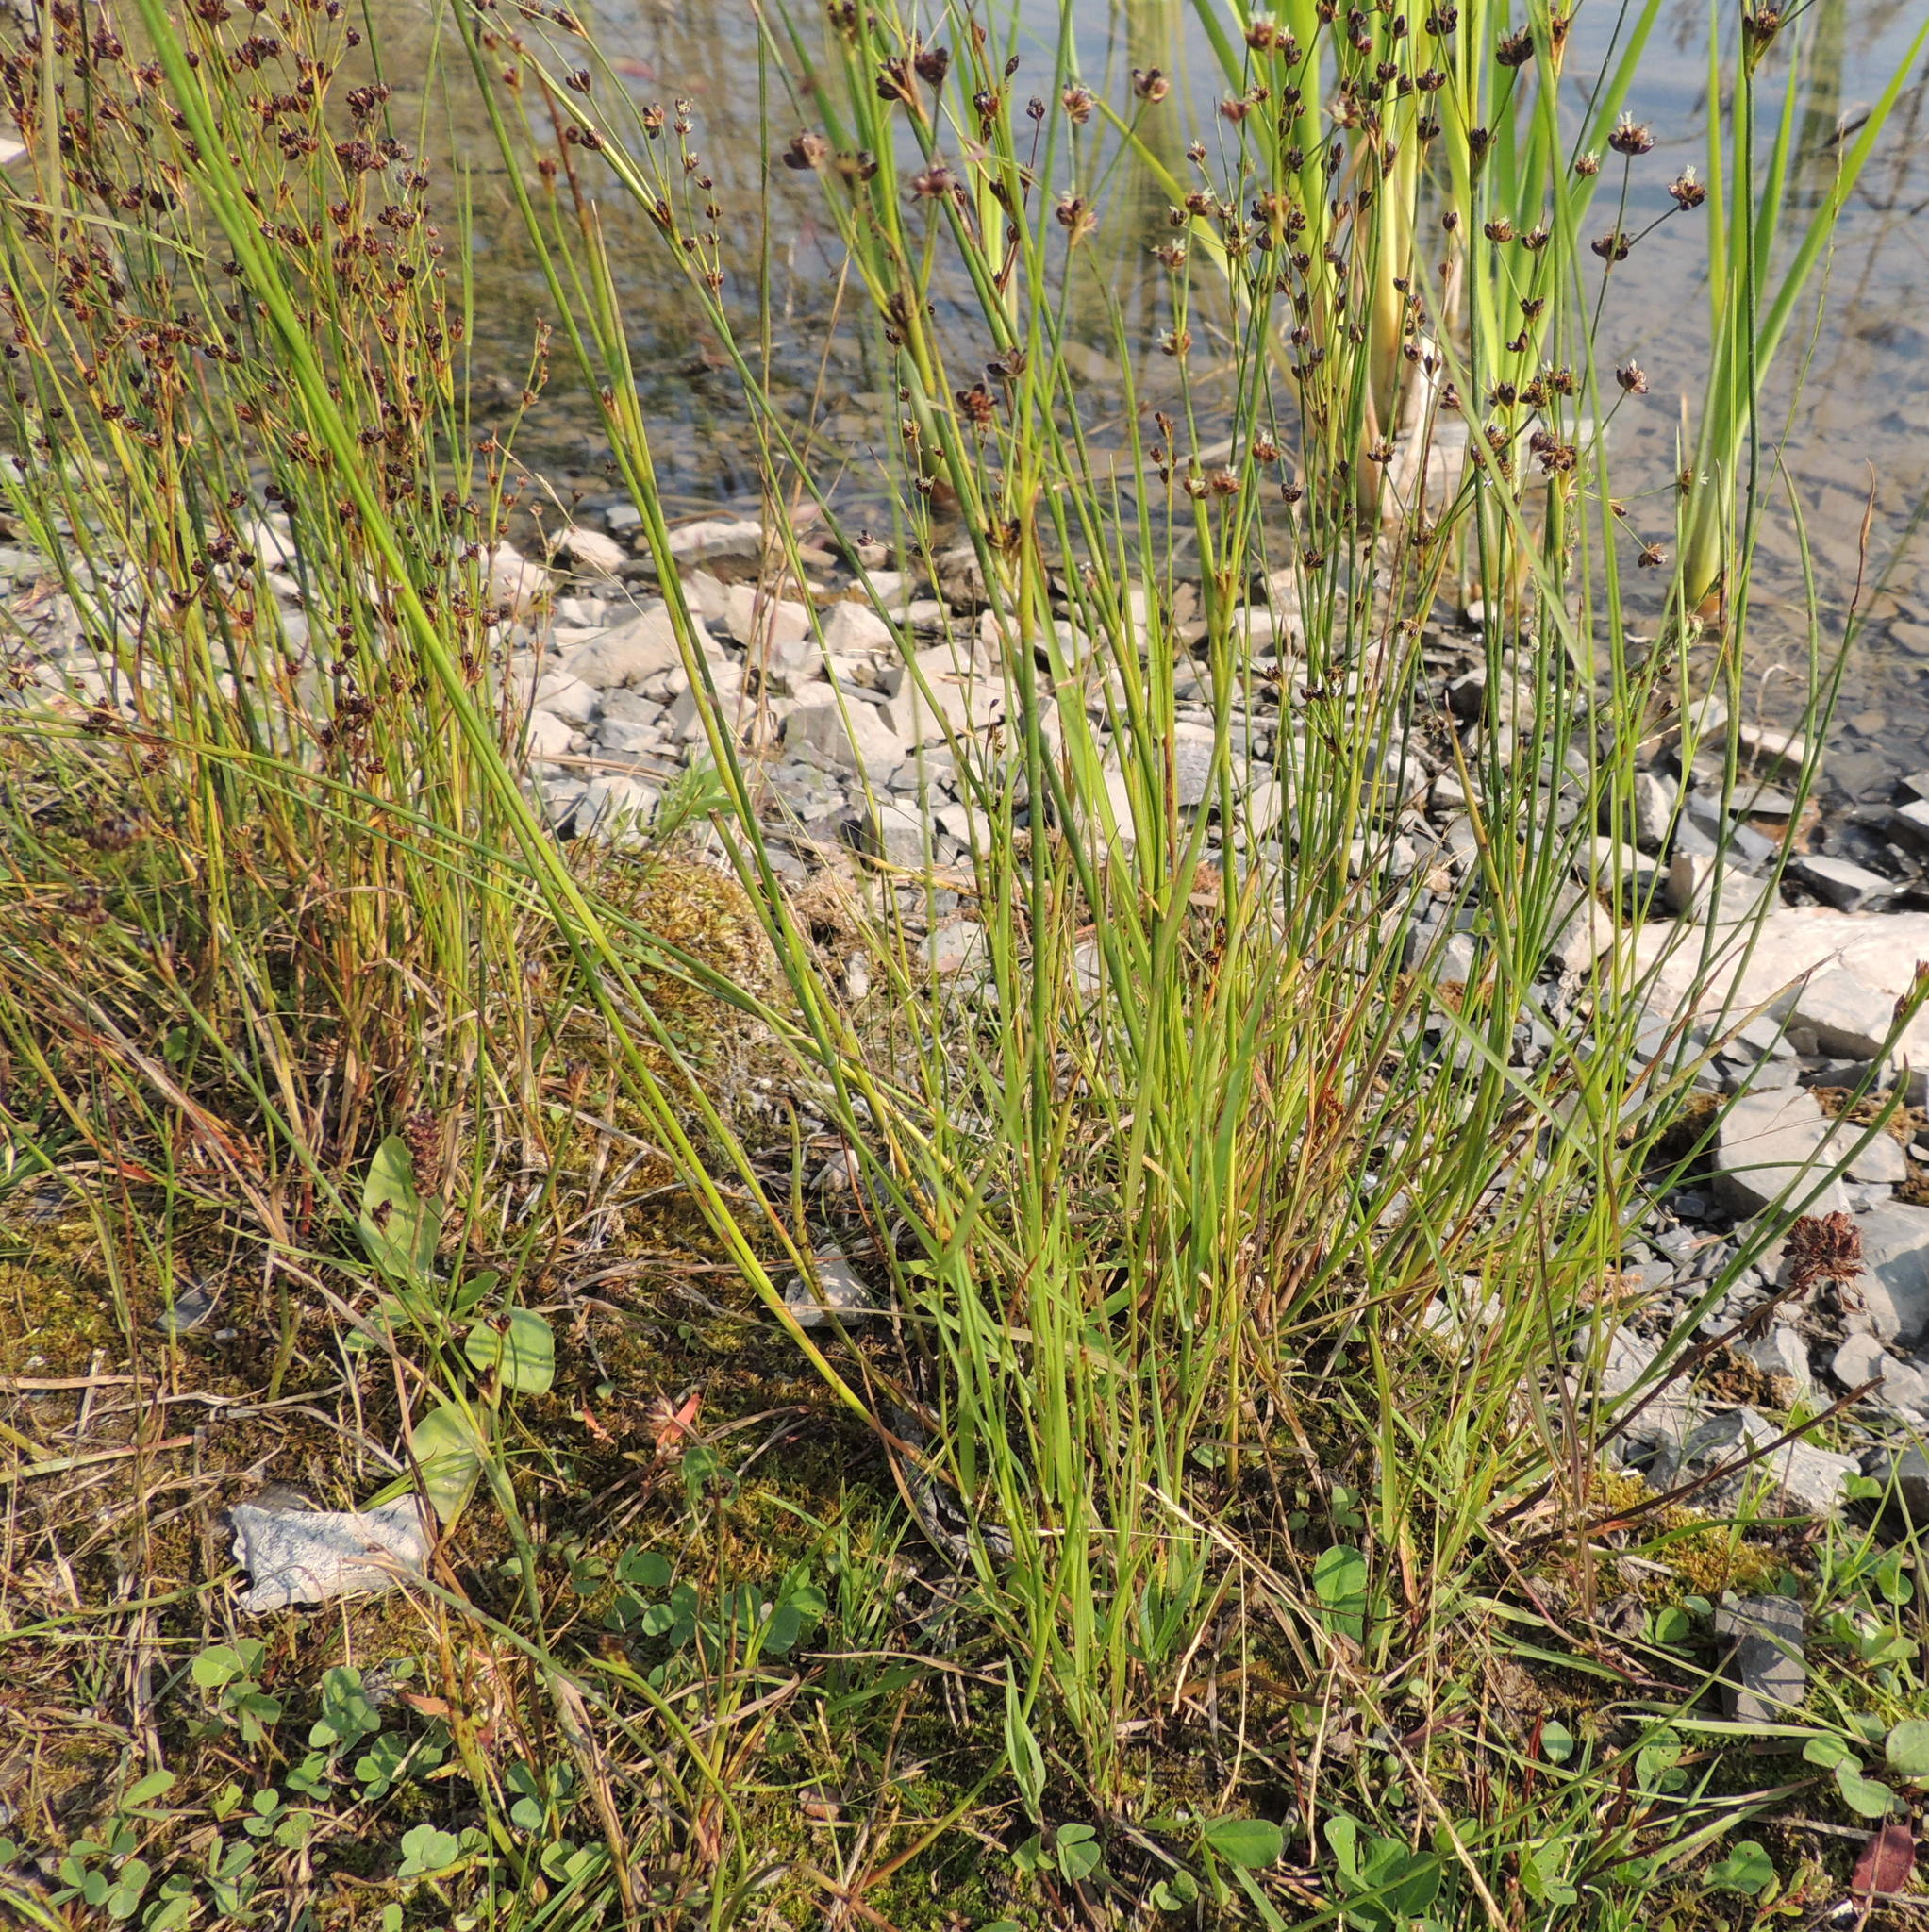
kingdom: Plantae
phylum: Tracheophyta
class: Liliopsida
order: Poales
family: Juncaceae
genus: Juncus
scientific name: Juncus alpinoarticulatus
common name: Alpine rush
